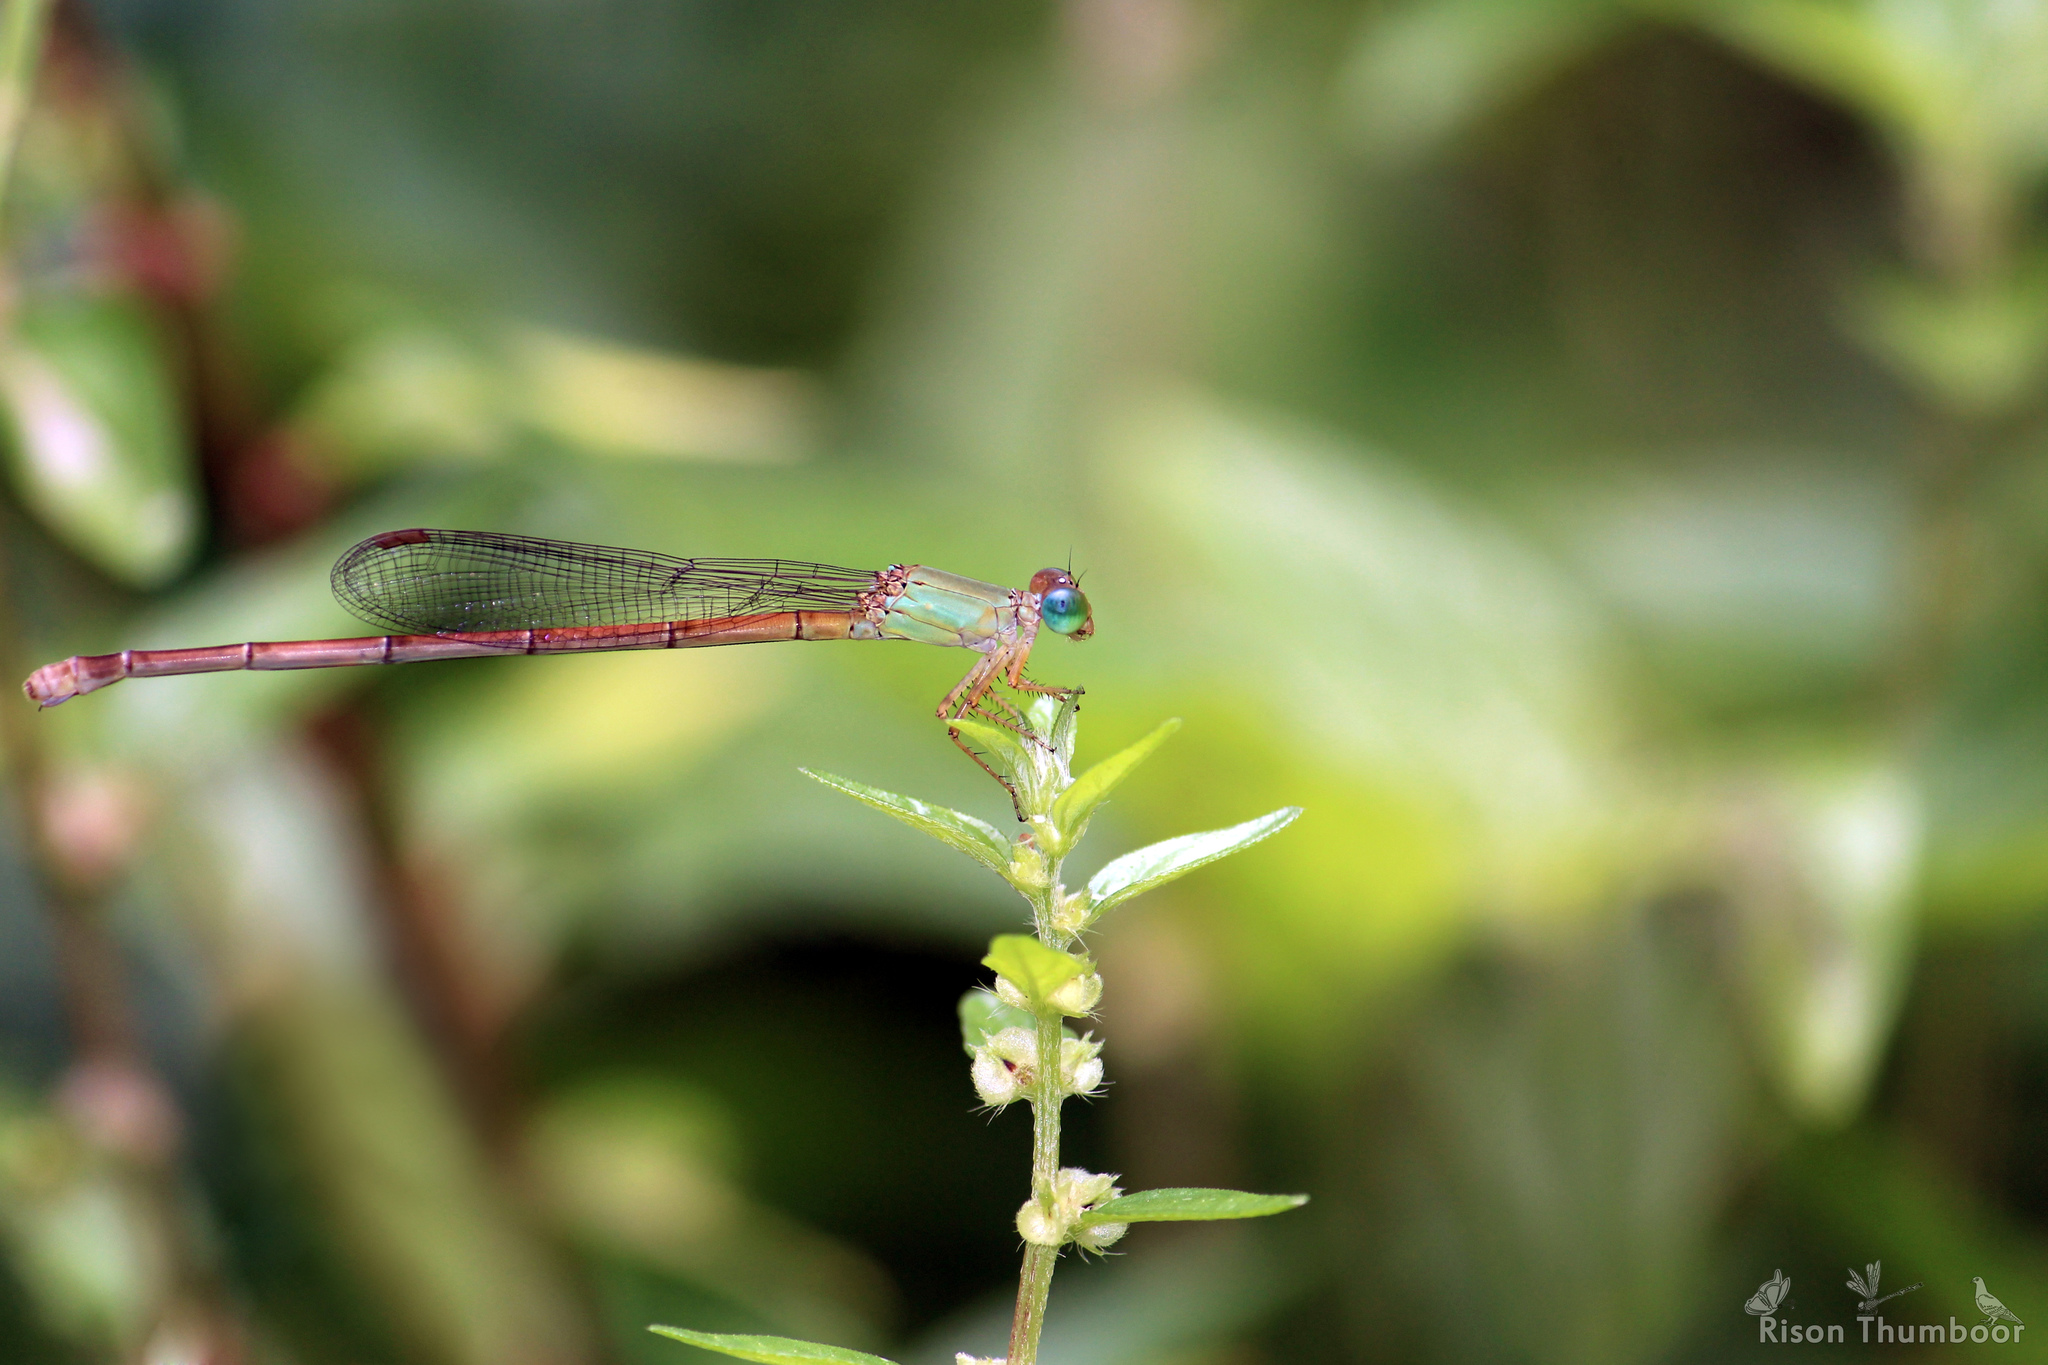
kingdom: Animalia
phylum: Arthropoda
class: Insecta
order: Odonata
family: Coenagrionidae
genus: Ceriagrion
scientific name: Ceriagrion rubiae
